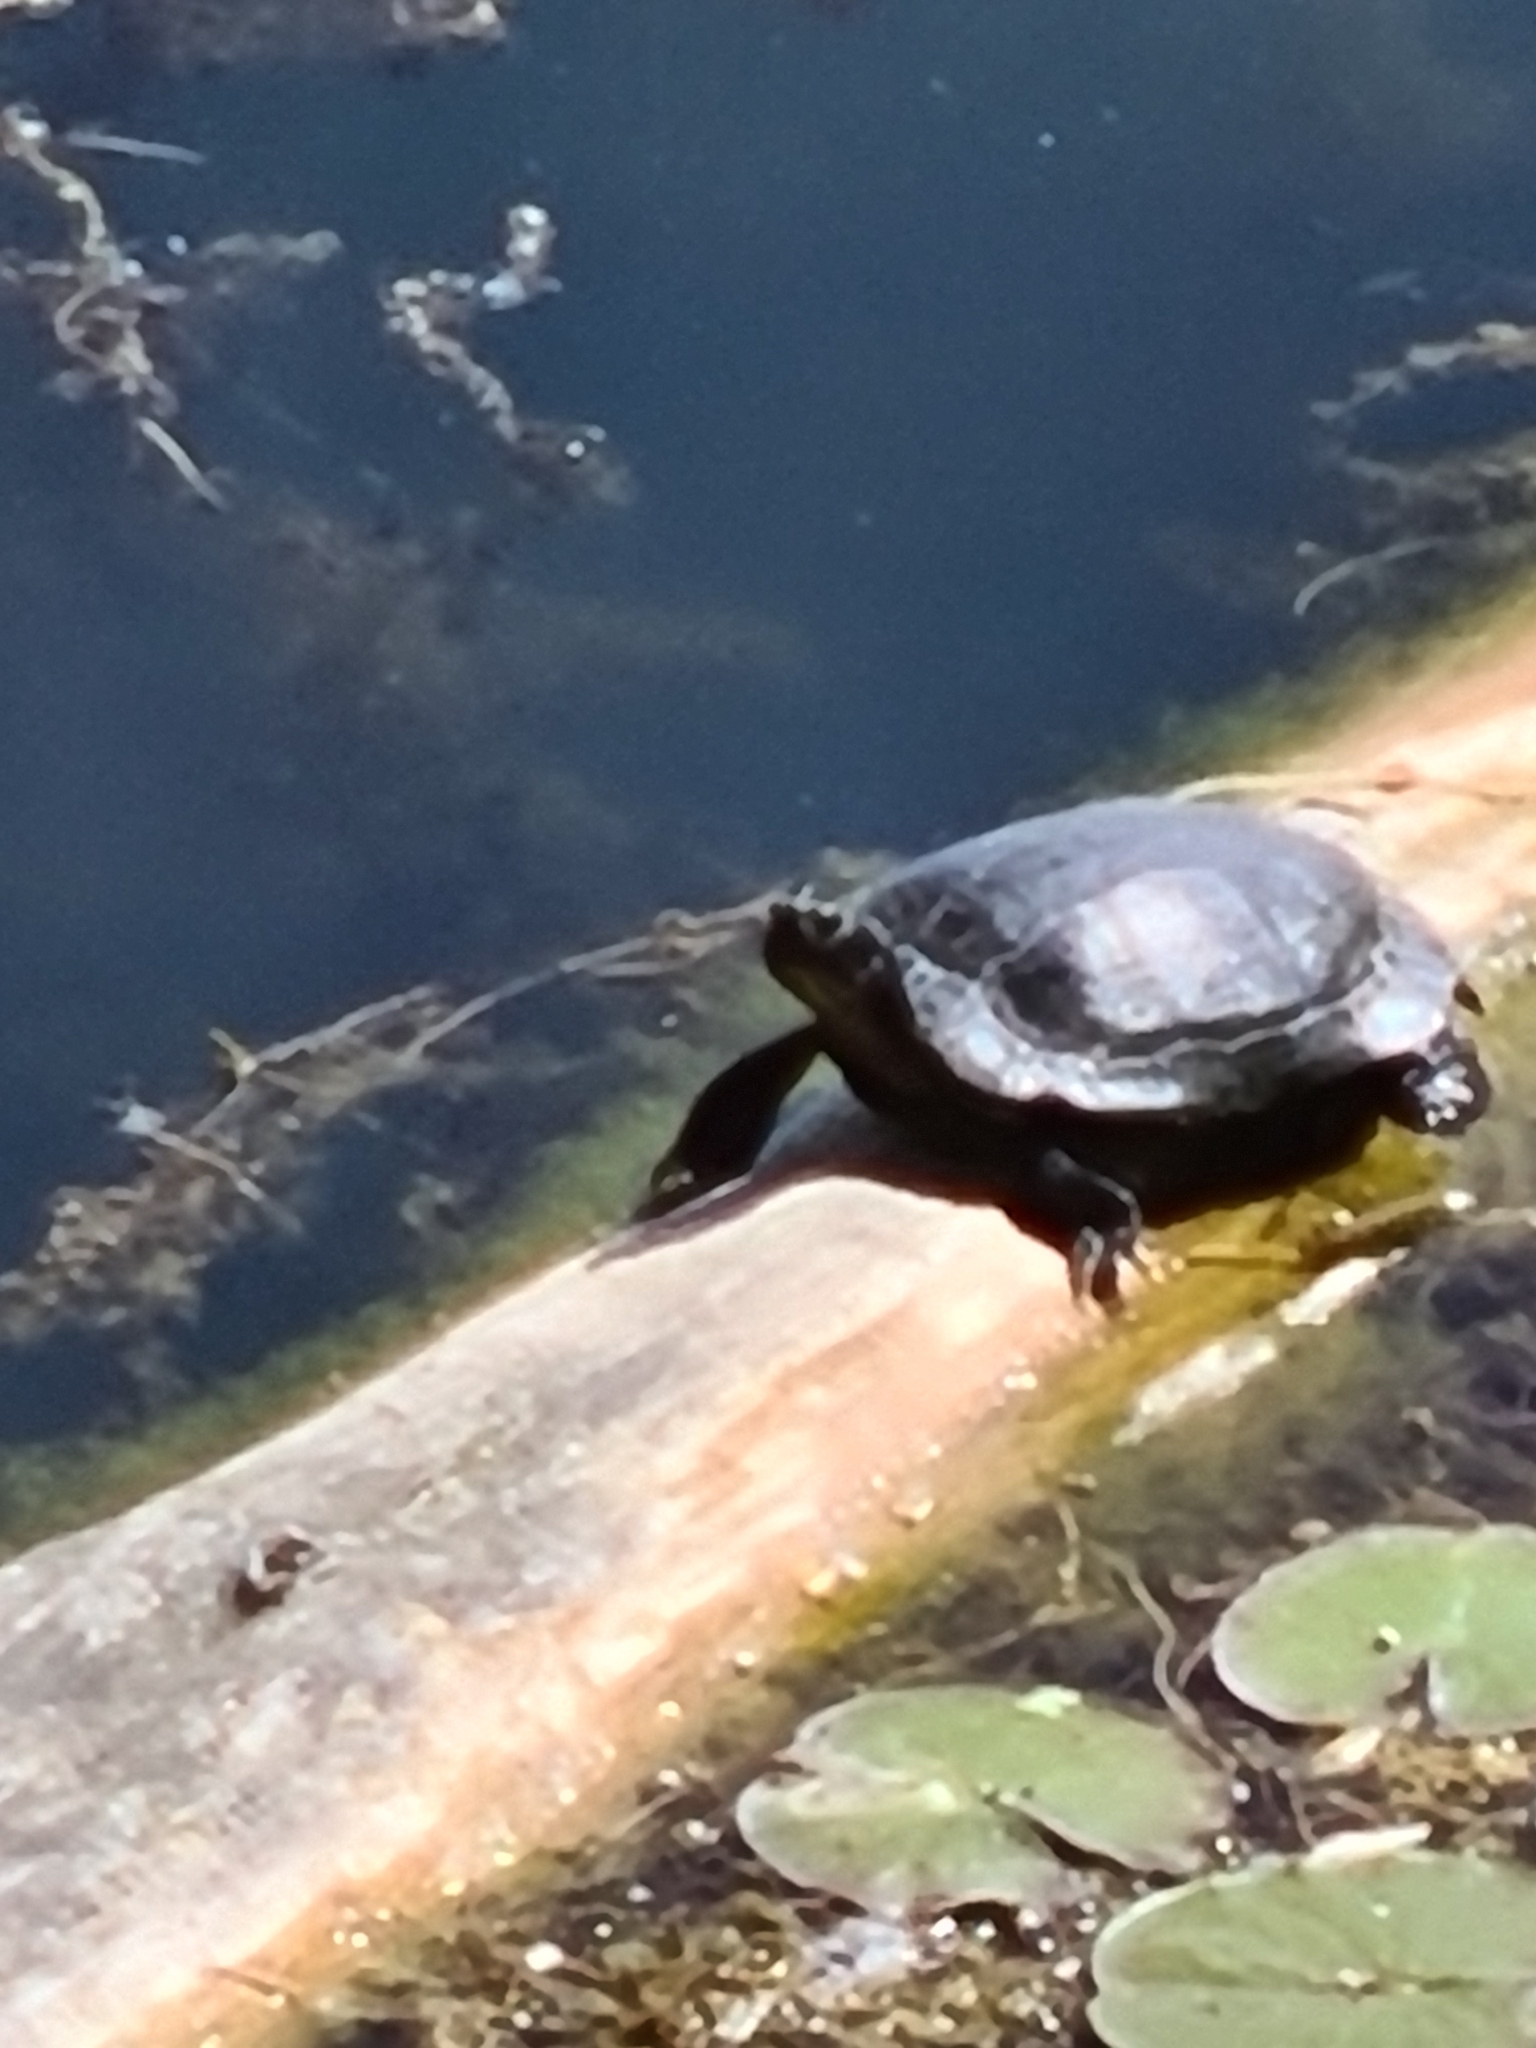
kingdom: Animalia
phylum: Chordata
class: Testudines
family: Emydidae
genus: Trachemys
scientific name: Trachemys scripta
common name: Slider
